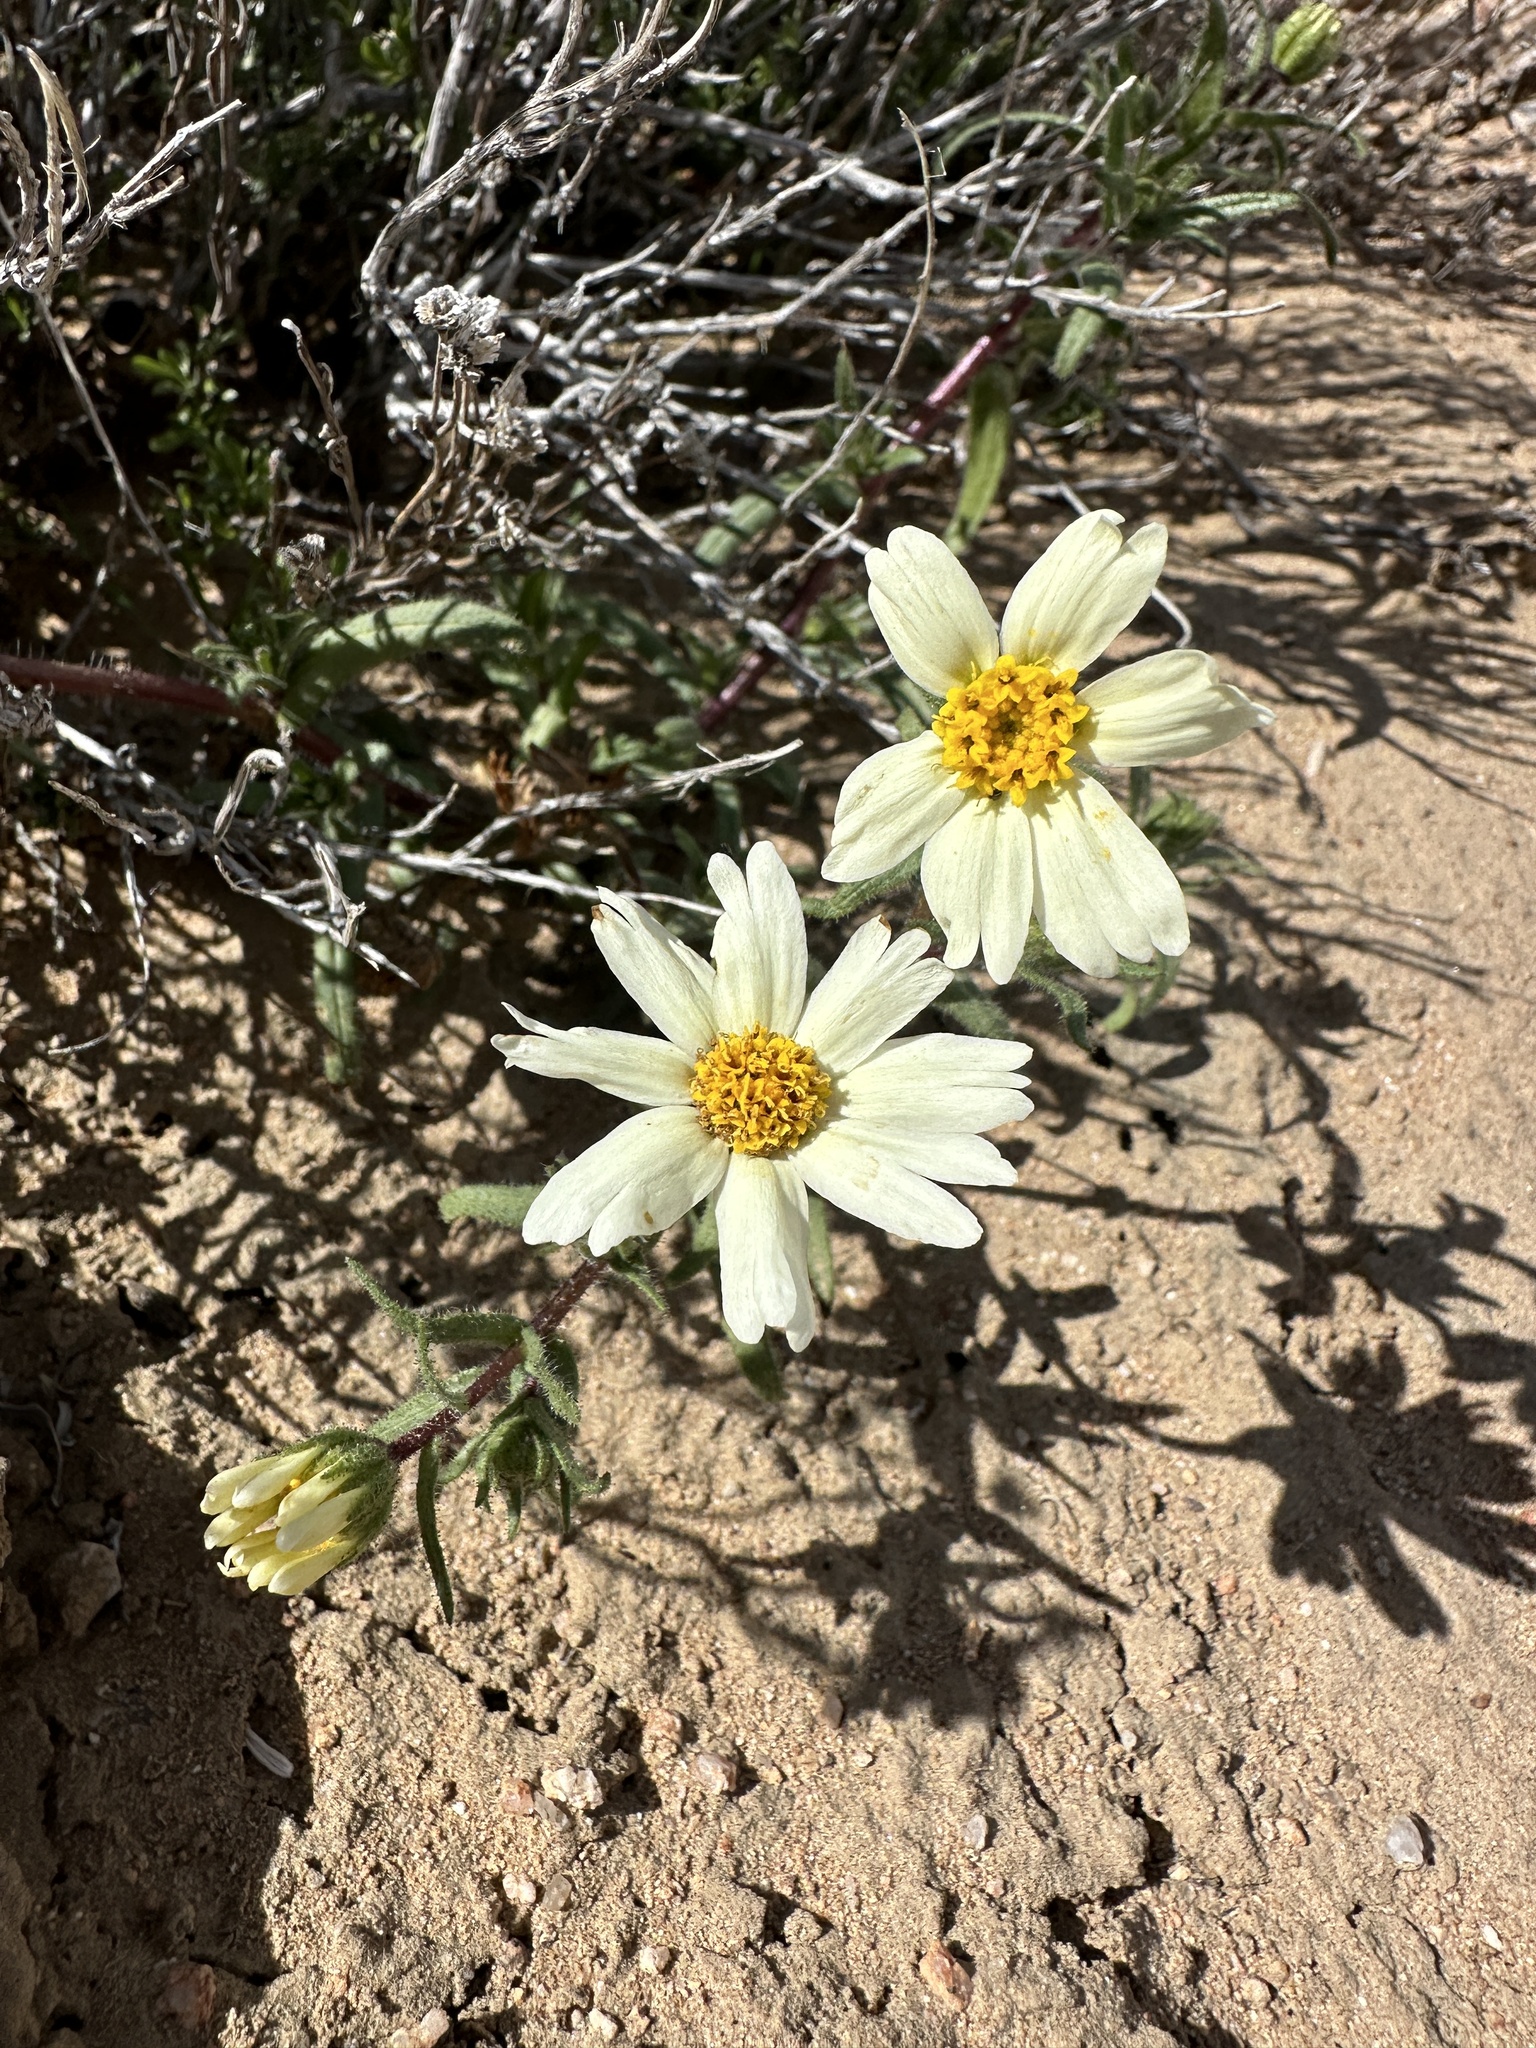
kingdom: Plantae
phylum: Tracheophyta
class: Magnoliopsida
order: Asterales
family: Asteraceae
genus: Layia
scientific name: Layia glandulosa
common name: White layia
